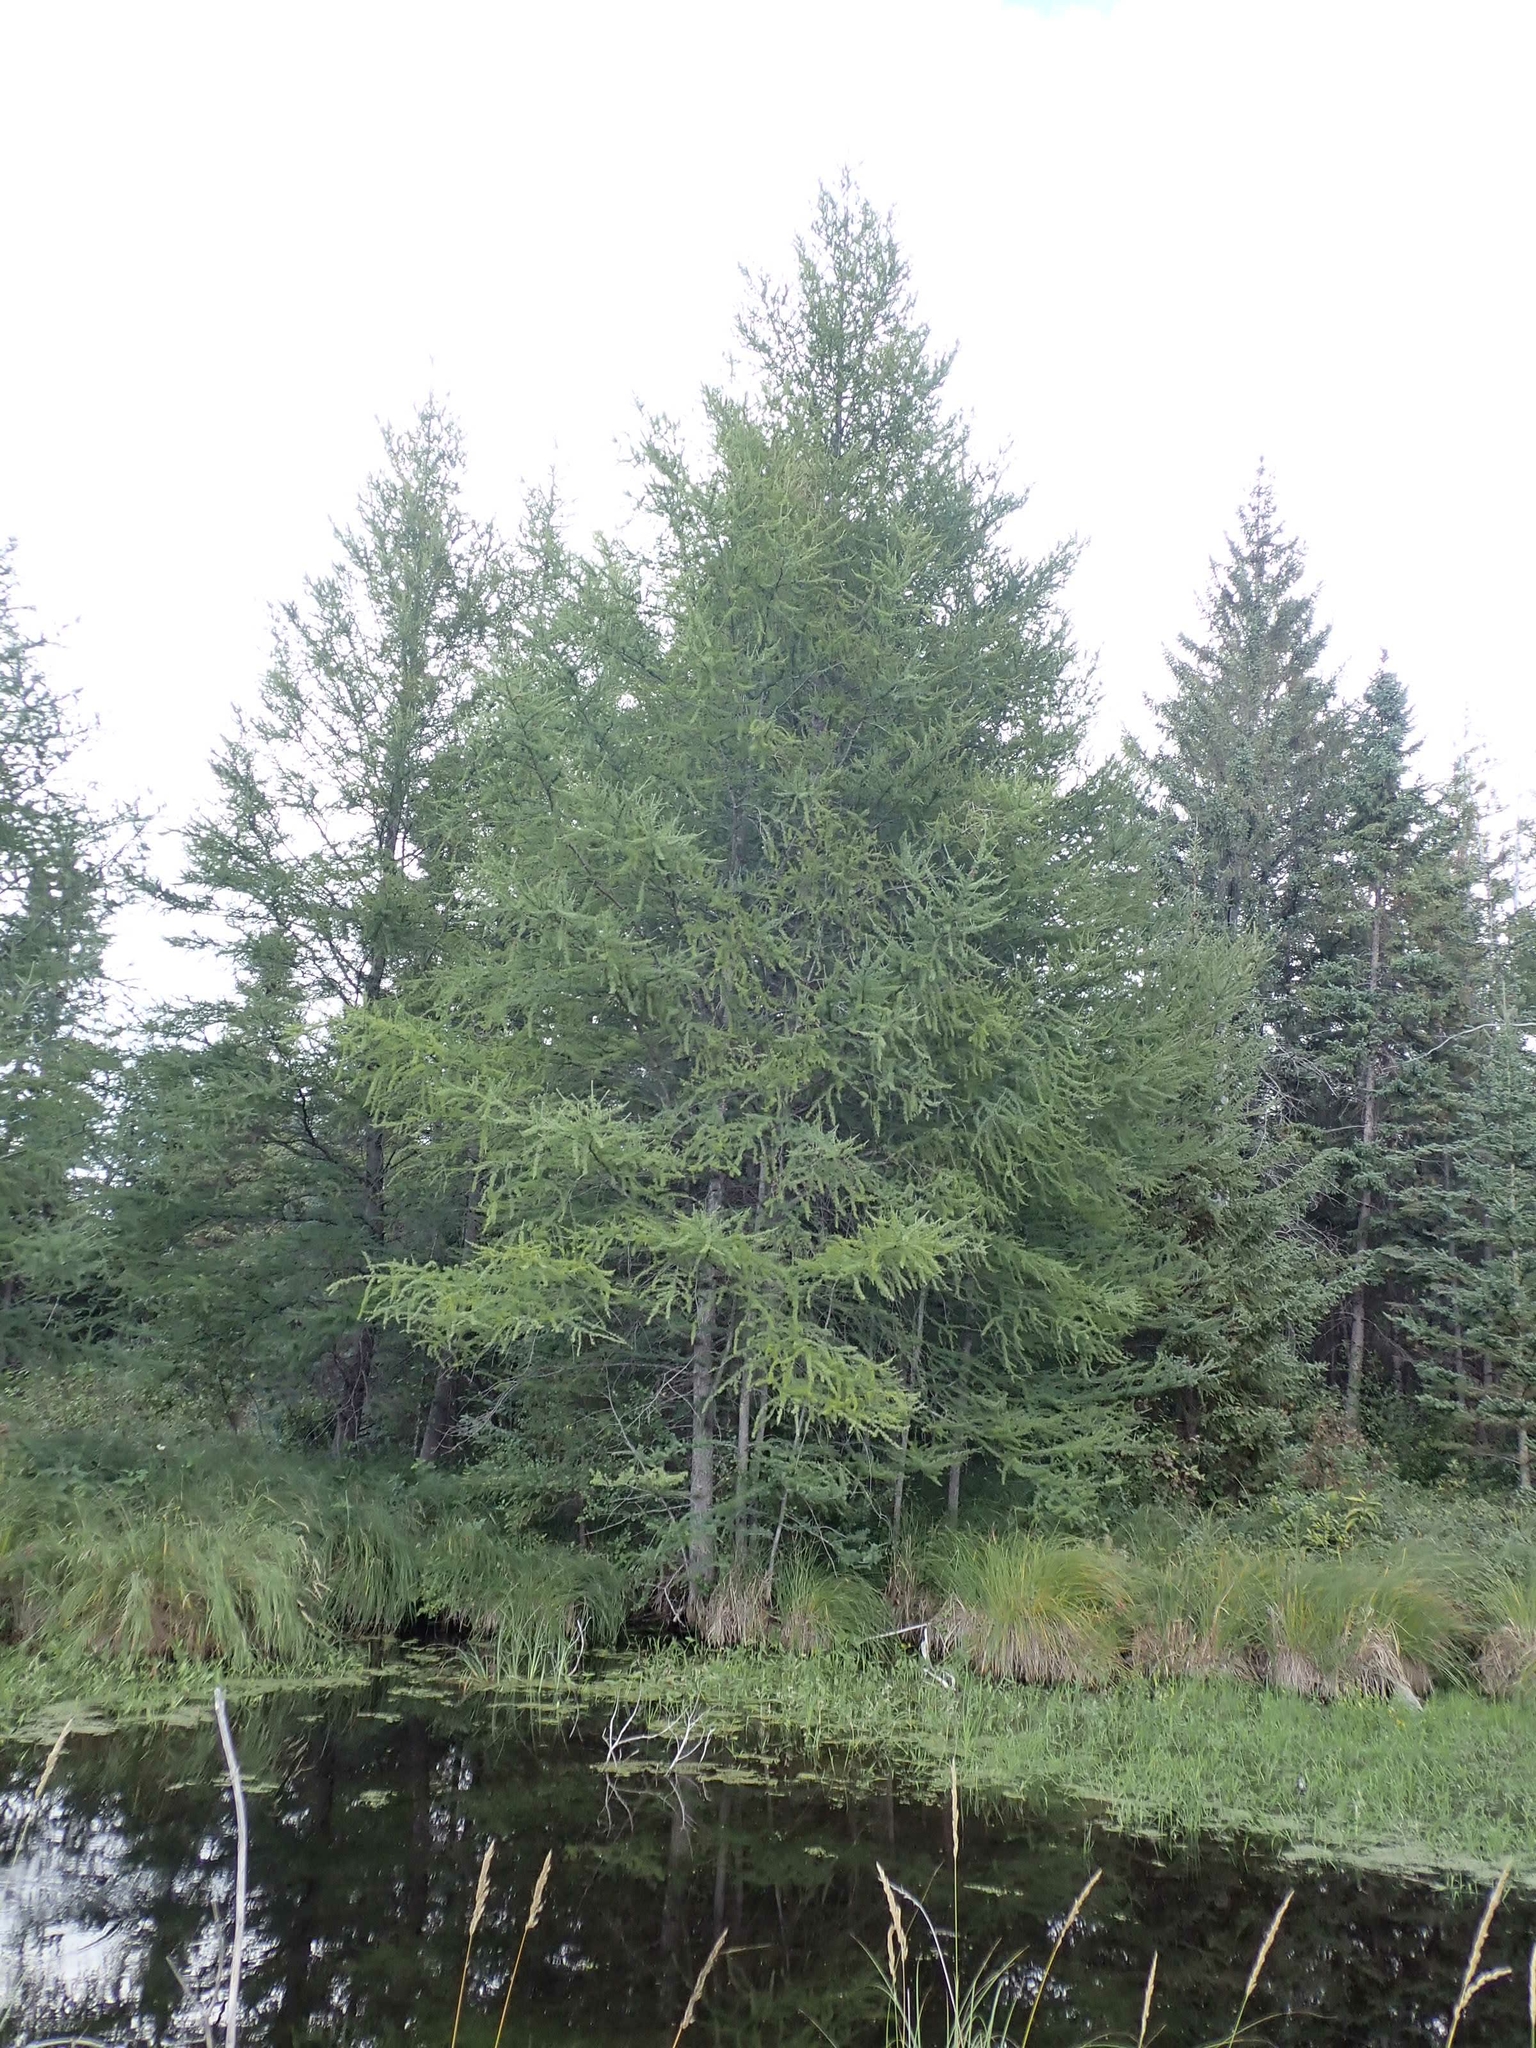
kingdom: Plantae
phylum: Tracheophyta
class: Pinopsida
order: Pinales
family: Pinaceae
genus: Larix
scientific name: Larix laricina
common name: American larch
